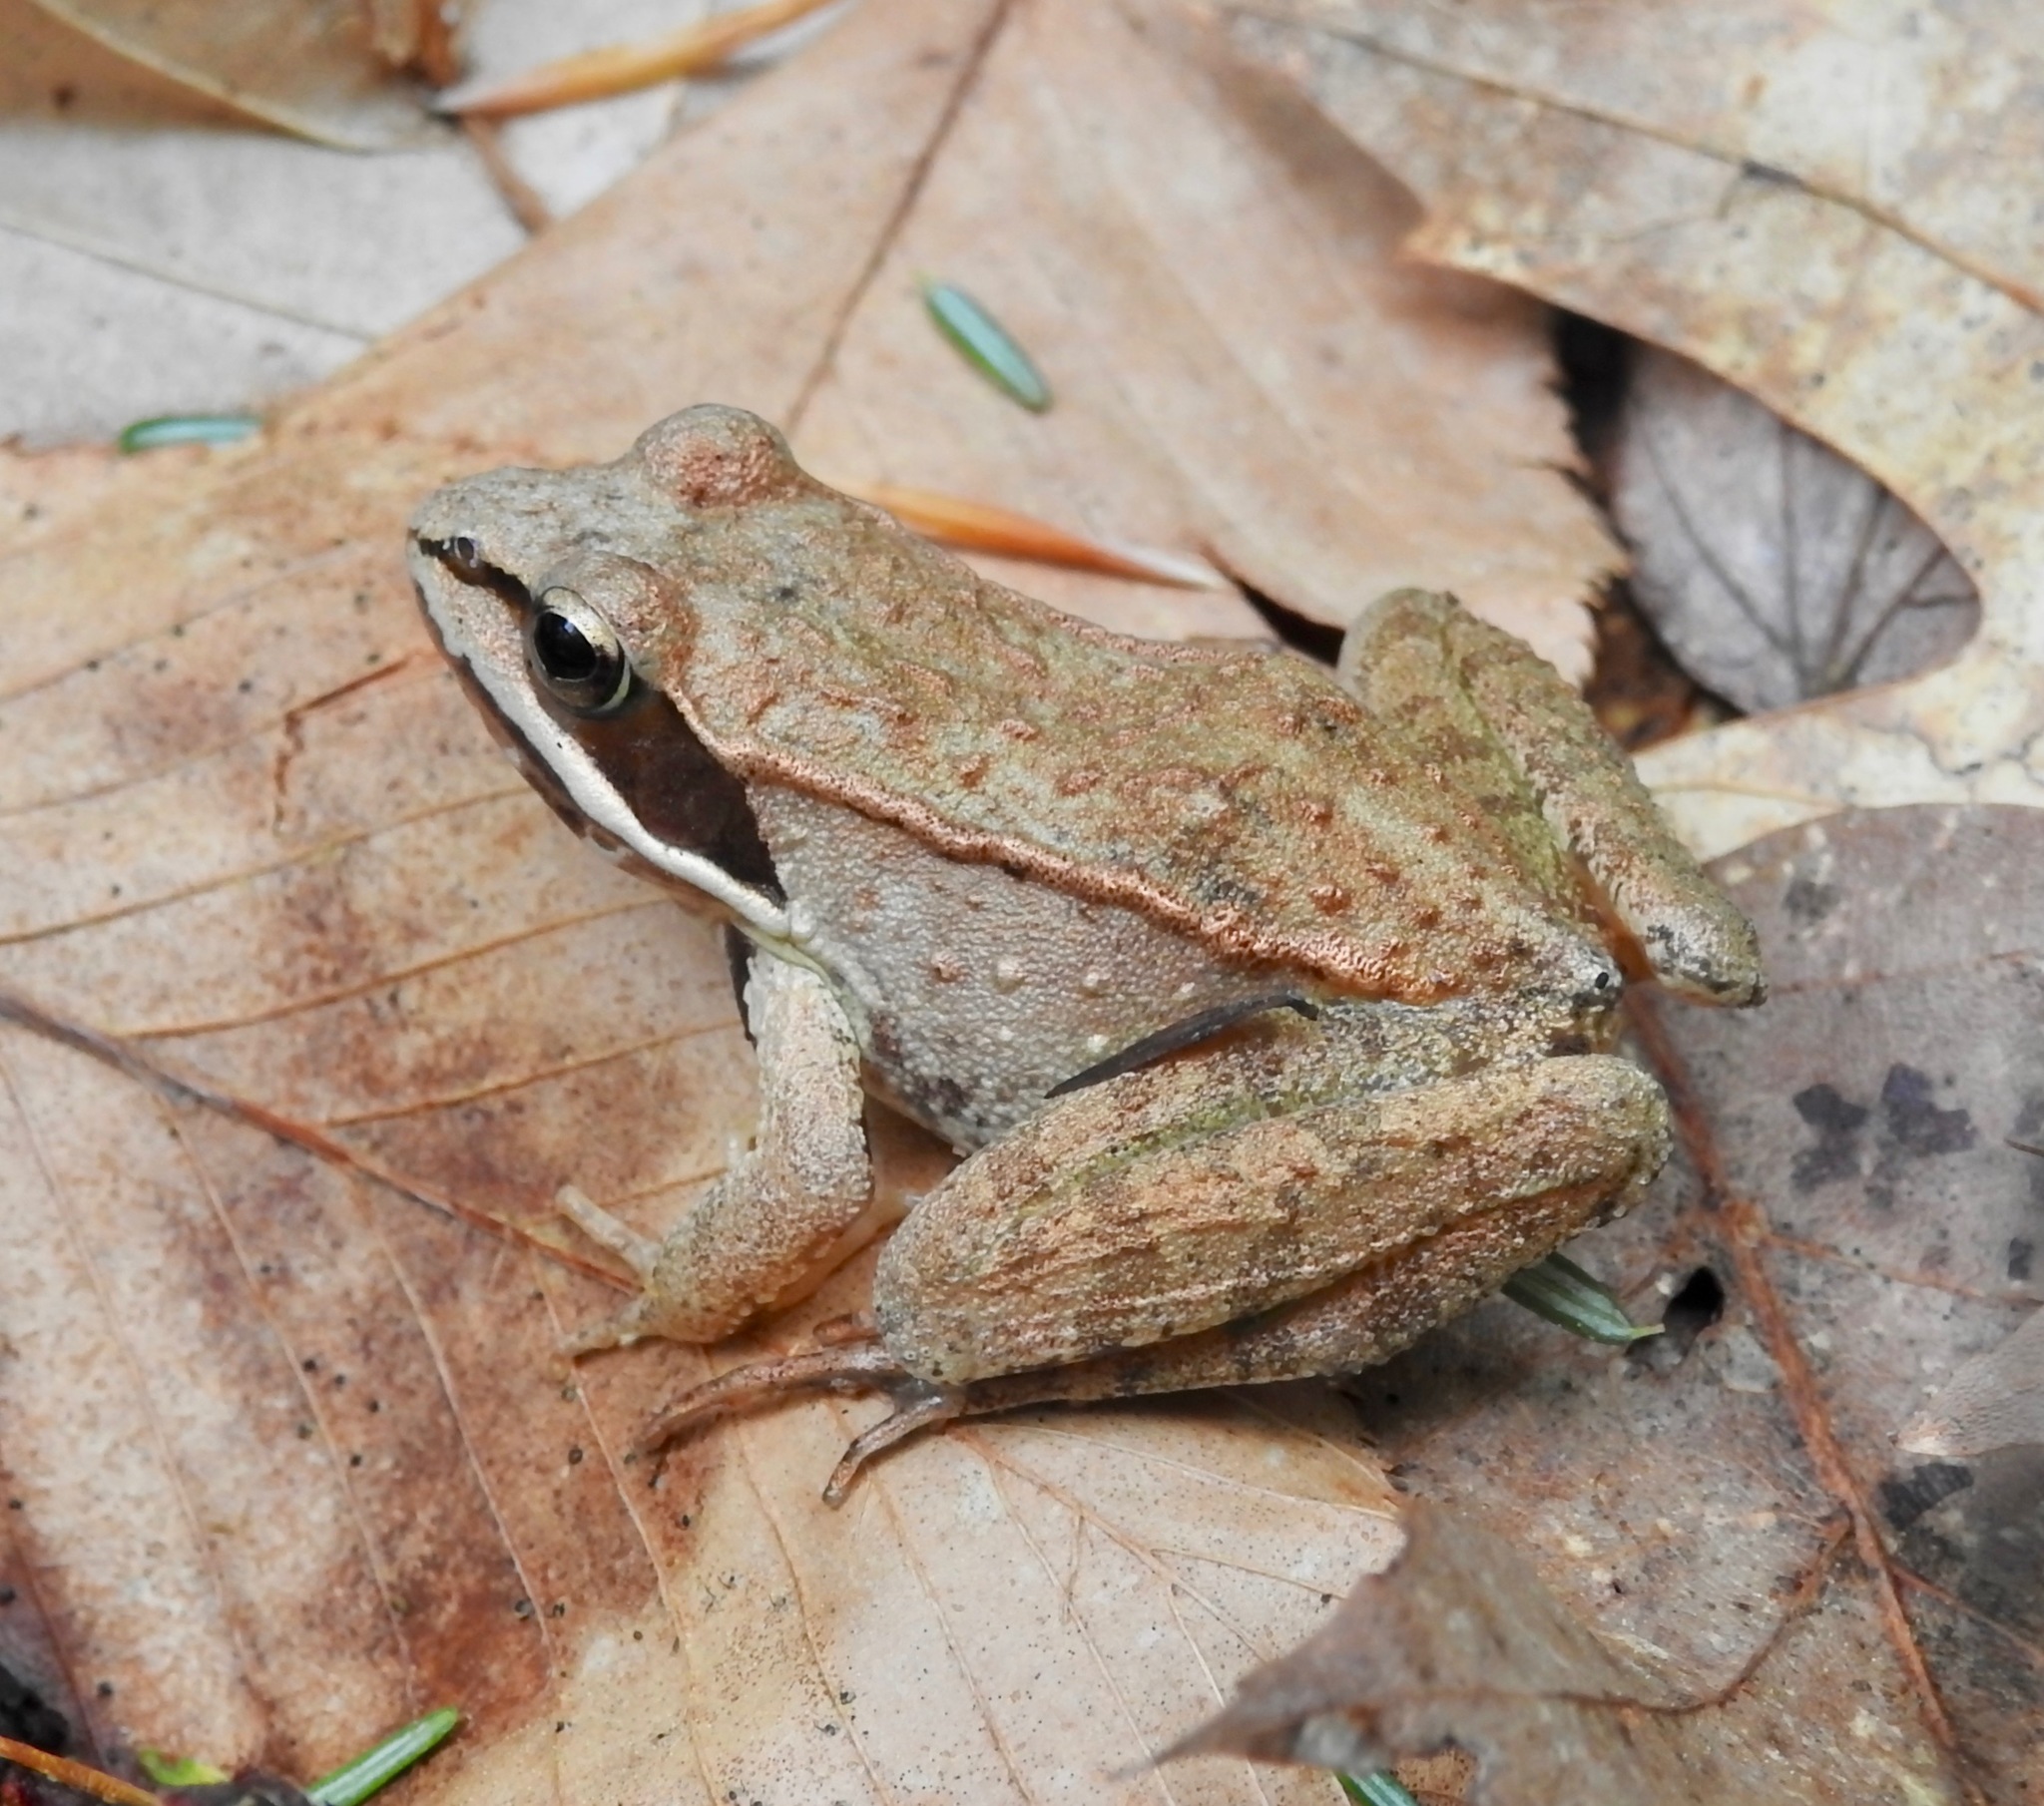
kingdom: Animalia
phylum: Chordata
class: Amphibia
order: Anura
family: Ranidae
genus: Lithobates
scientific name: Lithobates sylvaticus
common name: Wood frog
